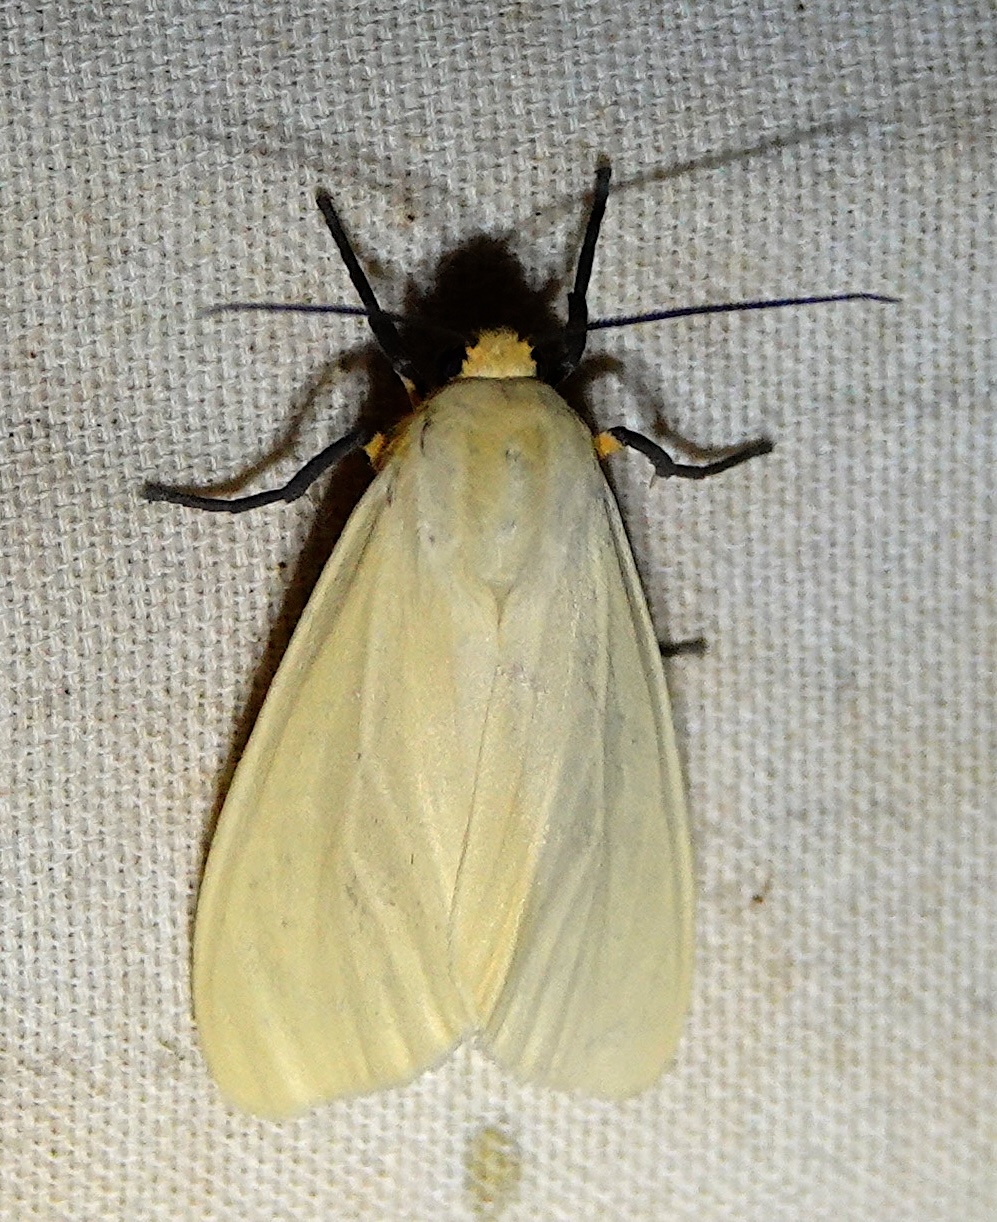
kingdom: Animalia
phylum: Arthropoda
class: Insecta
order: Lepidoptera
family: Erebidae
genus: Pareuchaetes
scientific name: Pareuchaetes insulata
